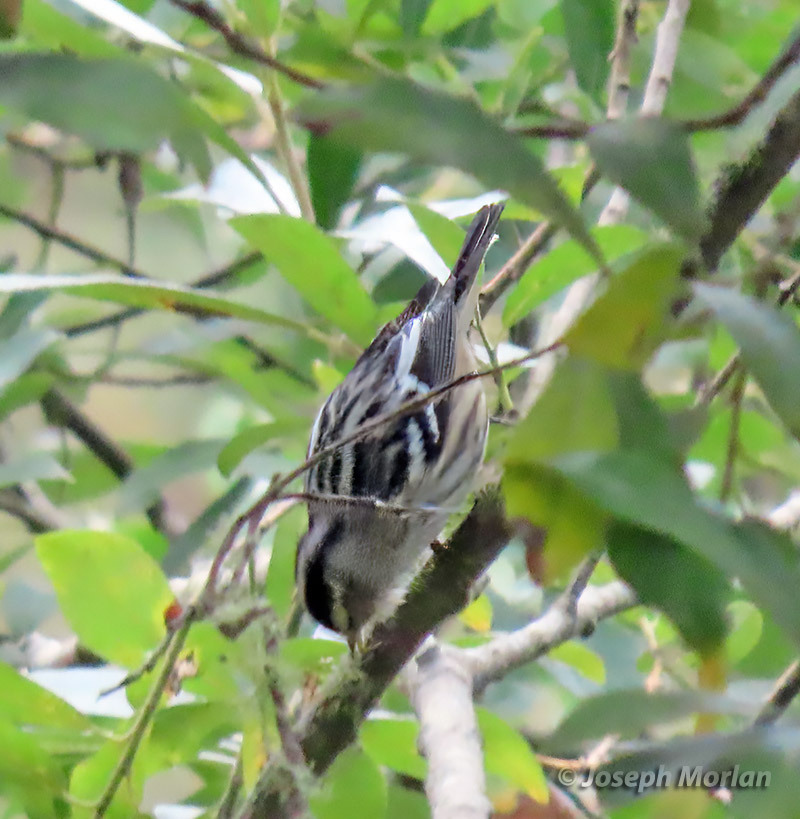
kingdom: Animalia
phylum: Chordata
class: Aves
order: Passeriformes
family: Parulidae
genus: Mniotilta
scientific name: Mniotilta varia
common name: Black-and-white warbler
